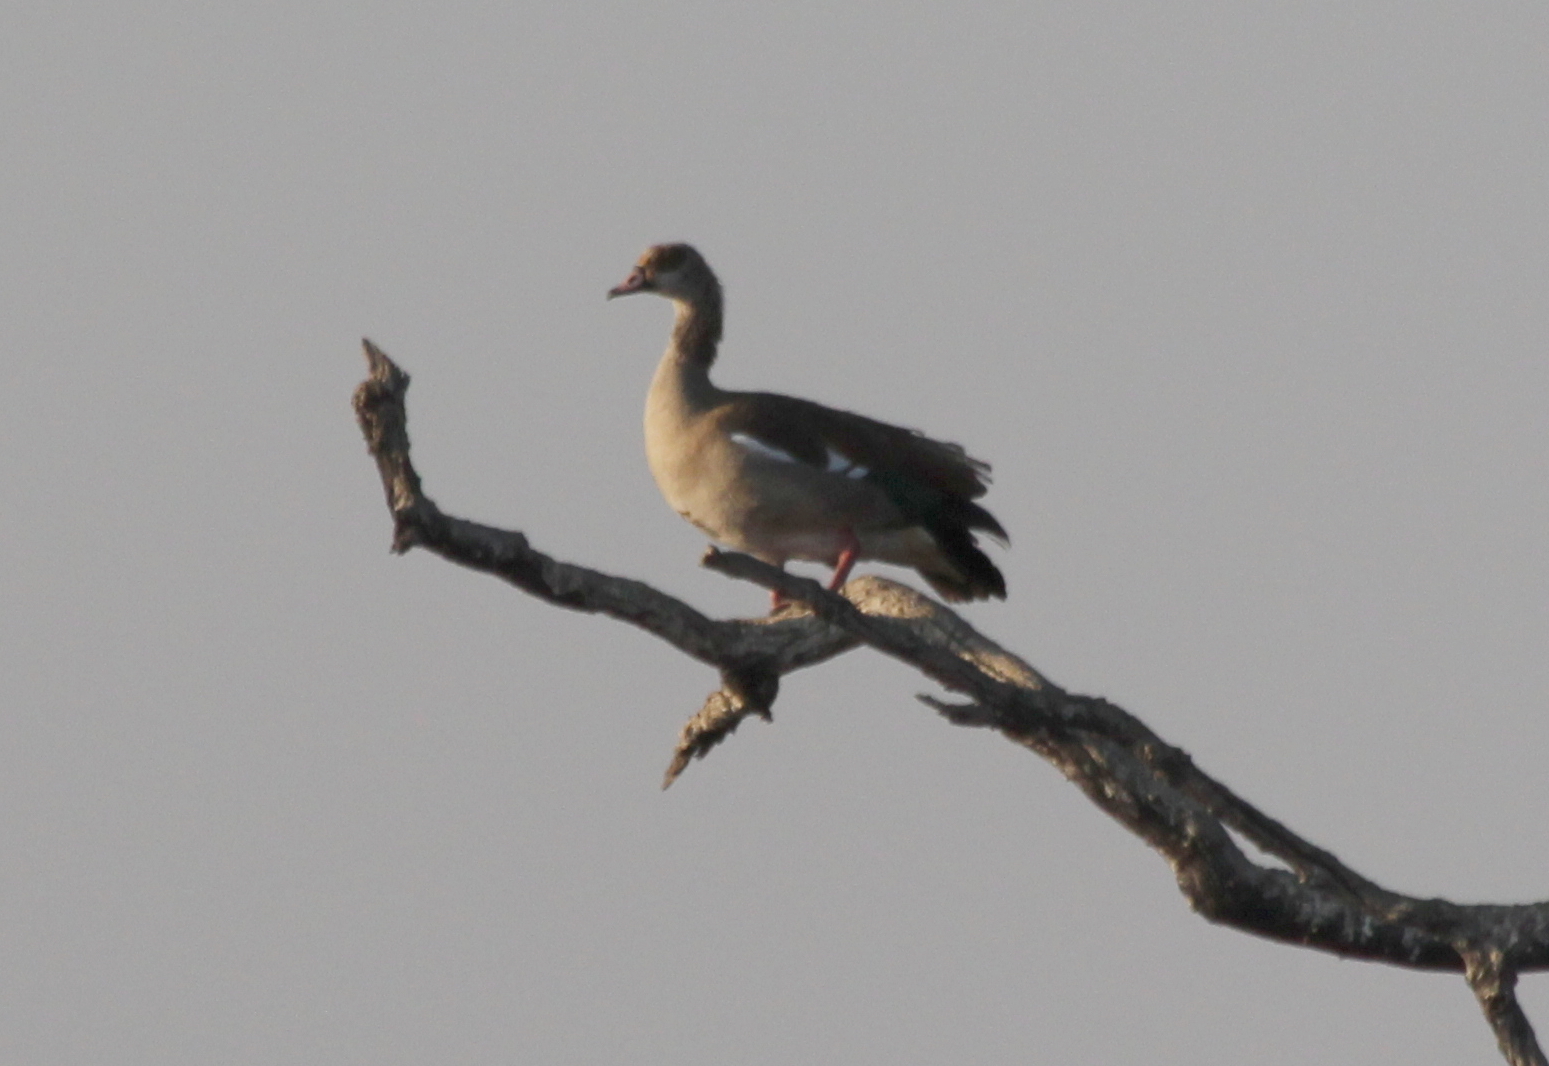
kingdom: Animalia
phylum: Chordata
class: Aves
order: Anseriformes
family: Anatidae
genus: Alopochen
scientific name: Alopochen aegyptiaca
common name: Egyptian goose
